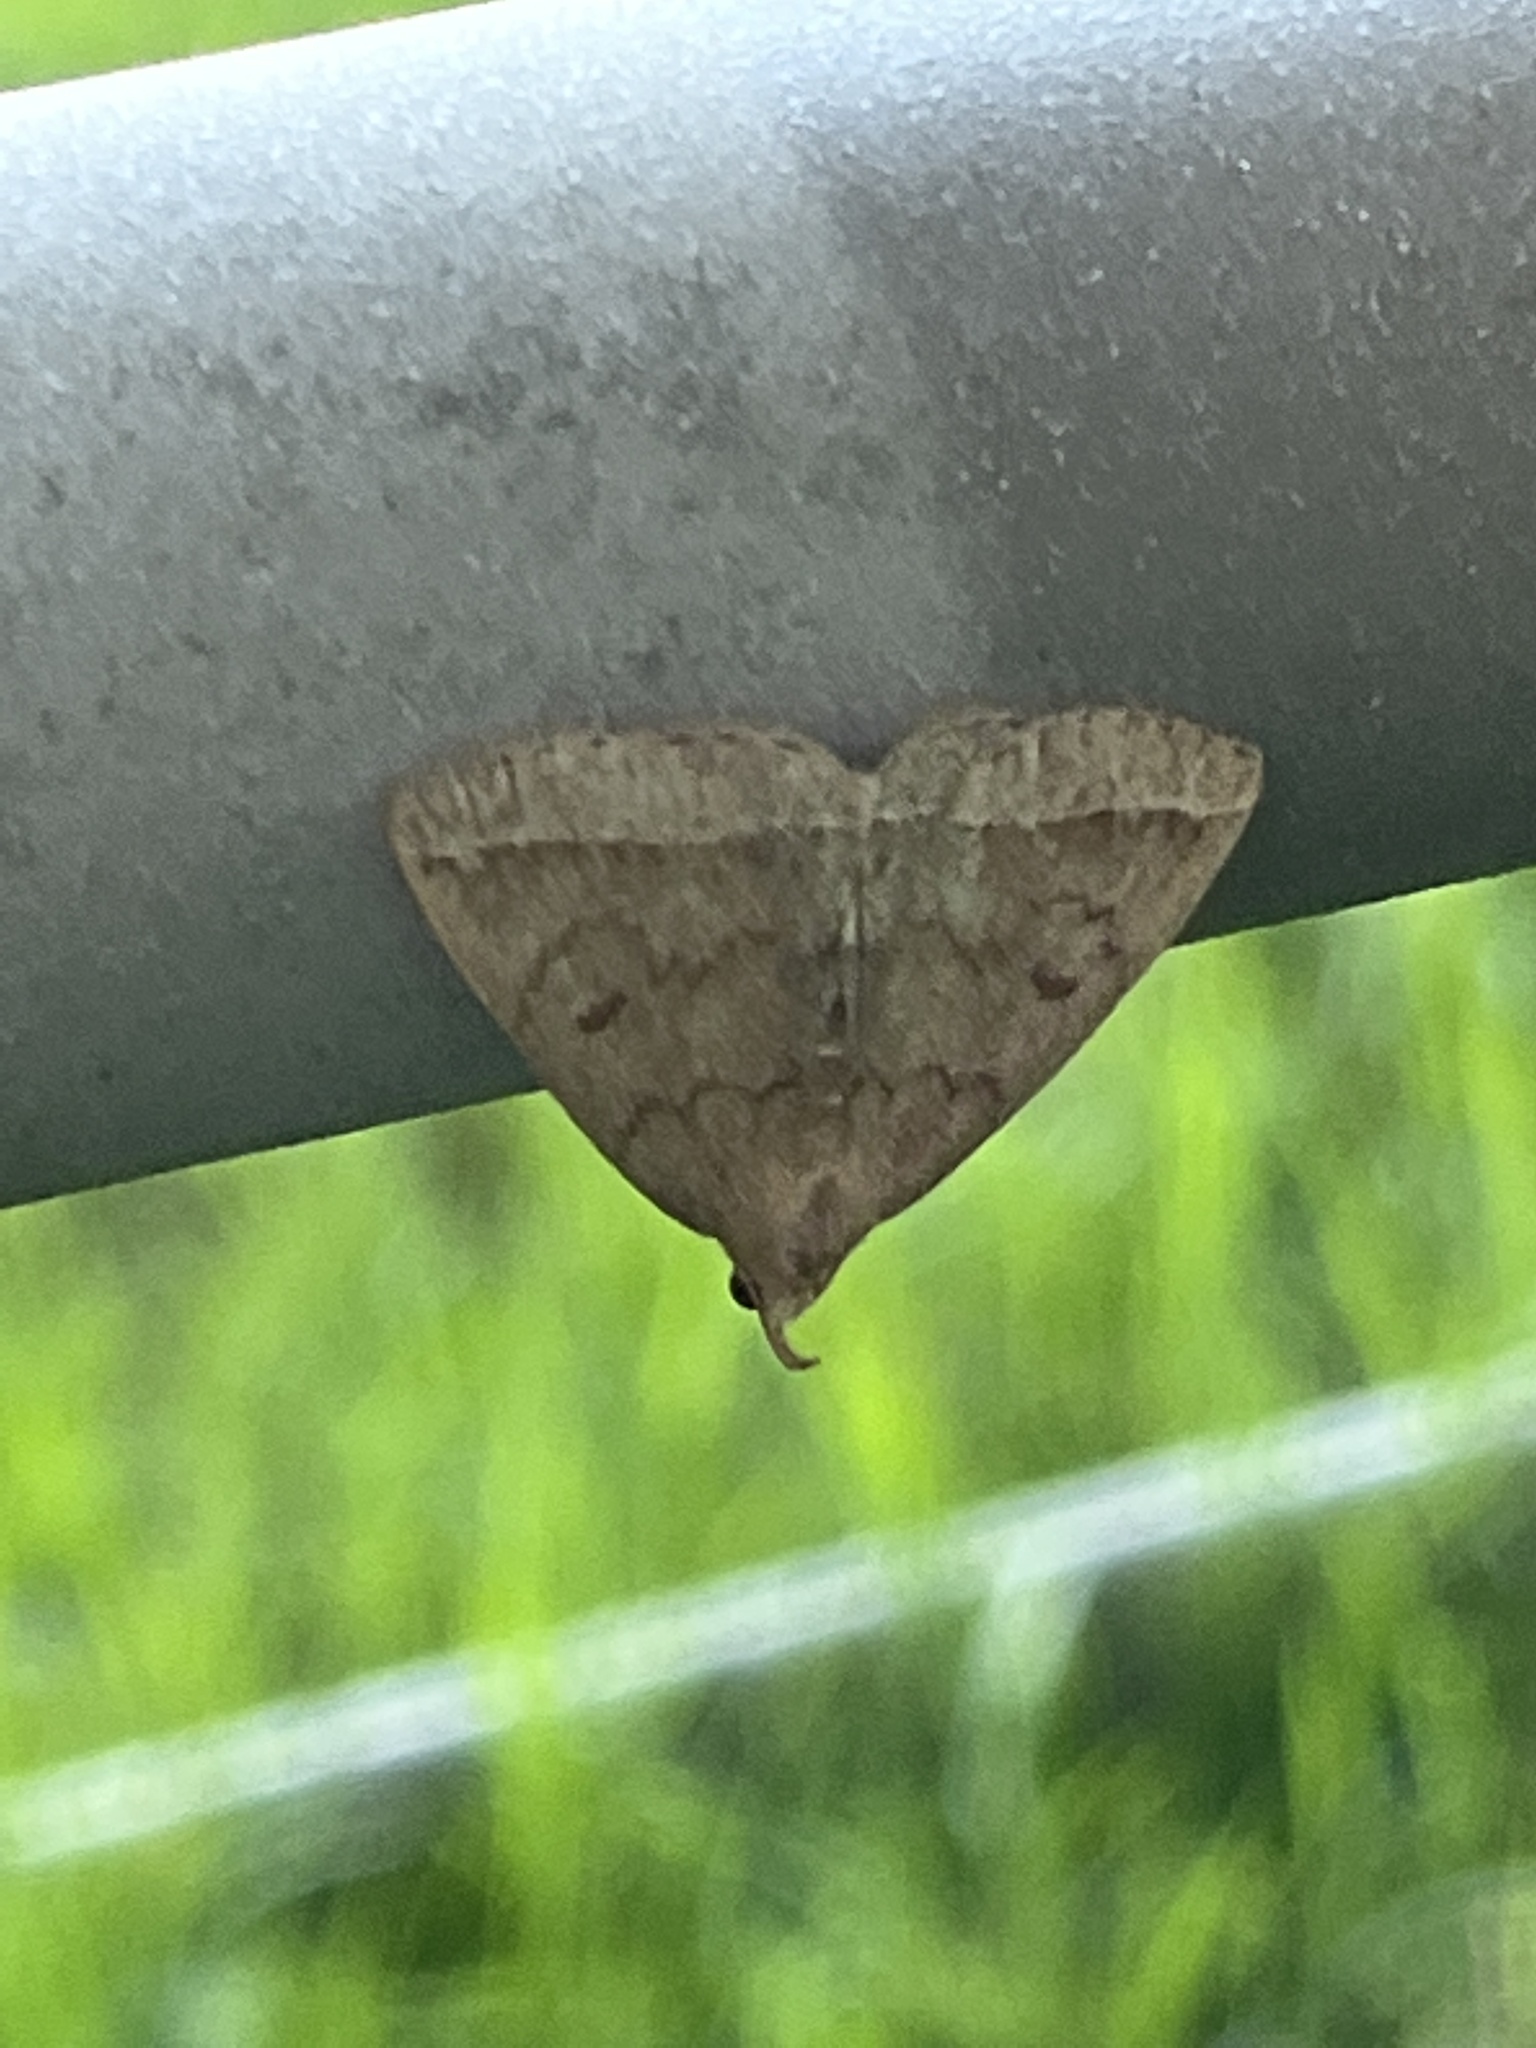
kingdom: Animalia
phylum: Arthropoda
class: Insecta
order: Lepidoptera
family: Erebidae
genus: Zanclognatha
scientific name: Zanclognatha jacchusalis
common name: Yellowish zanclognatha
